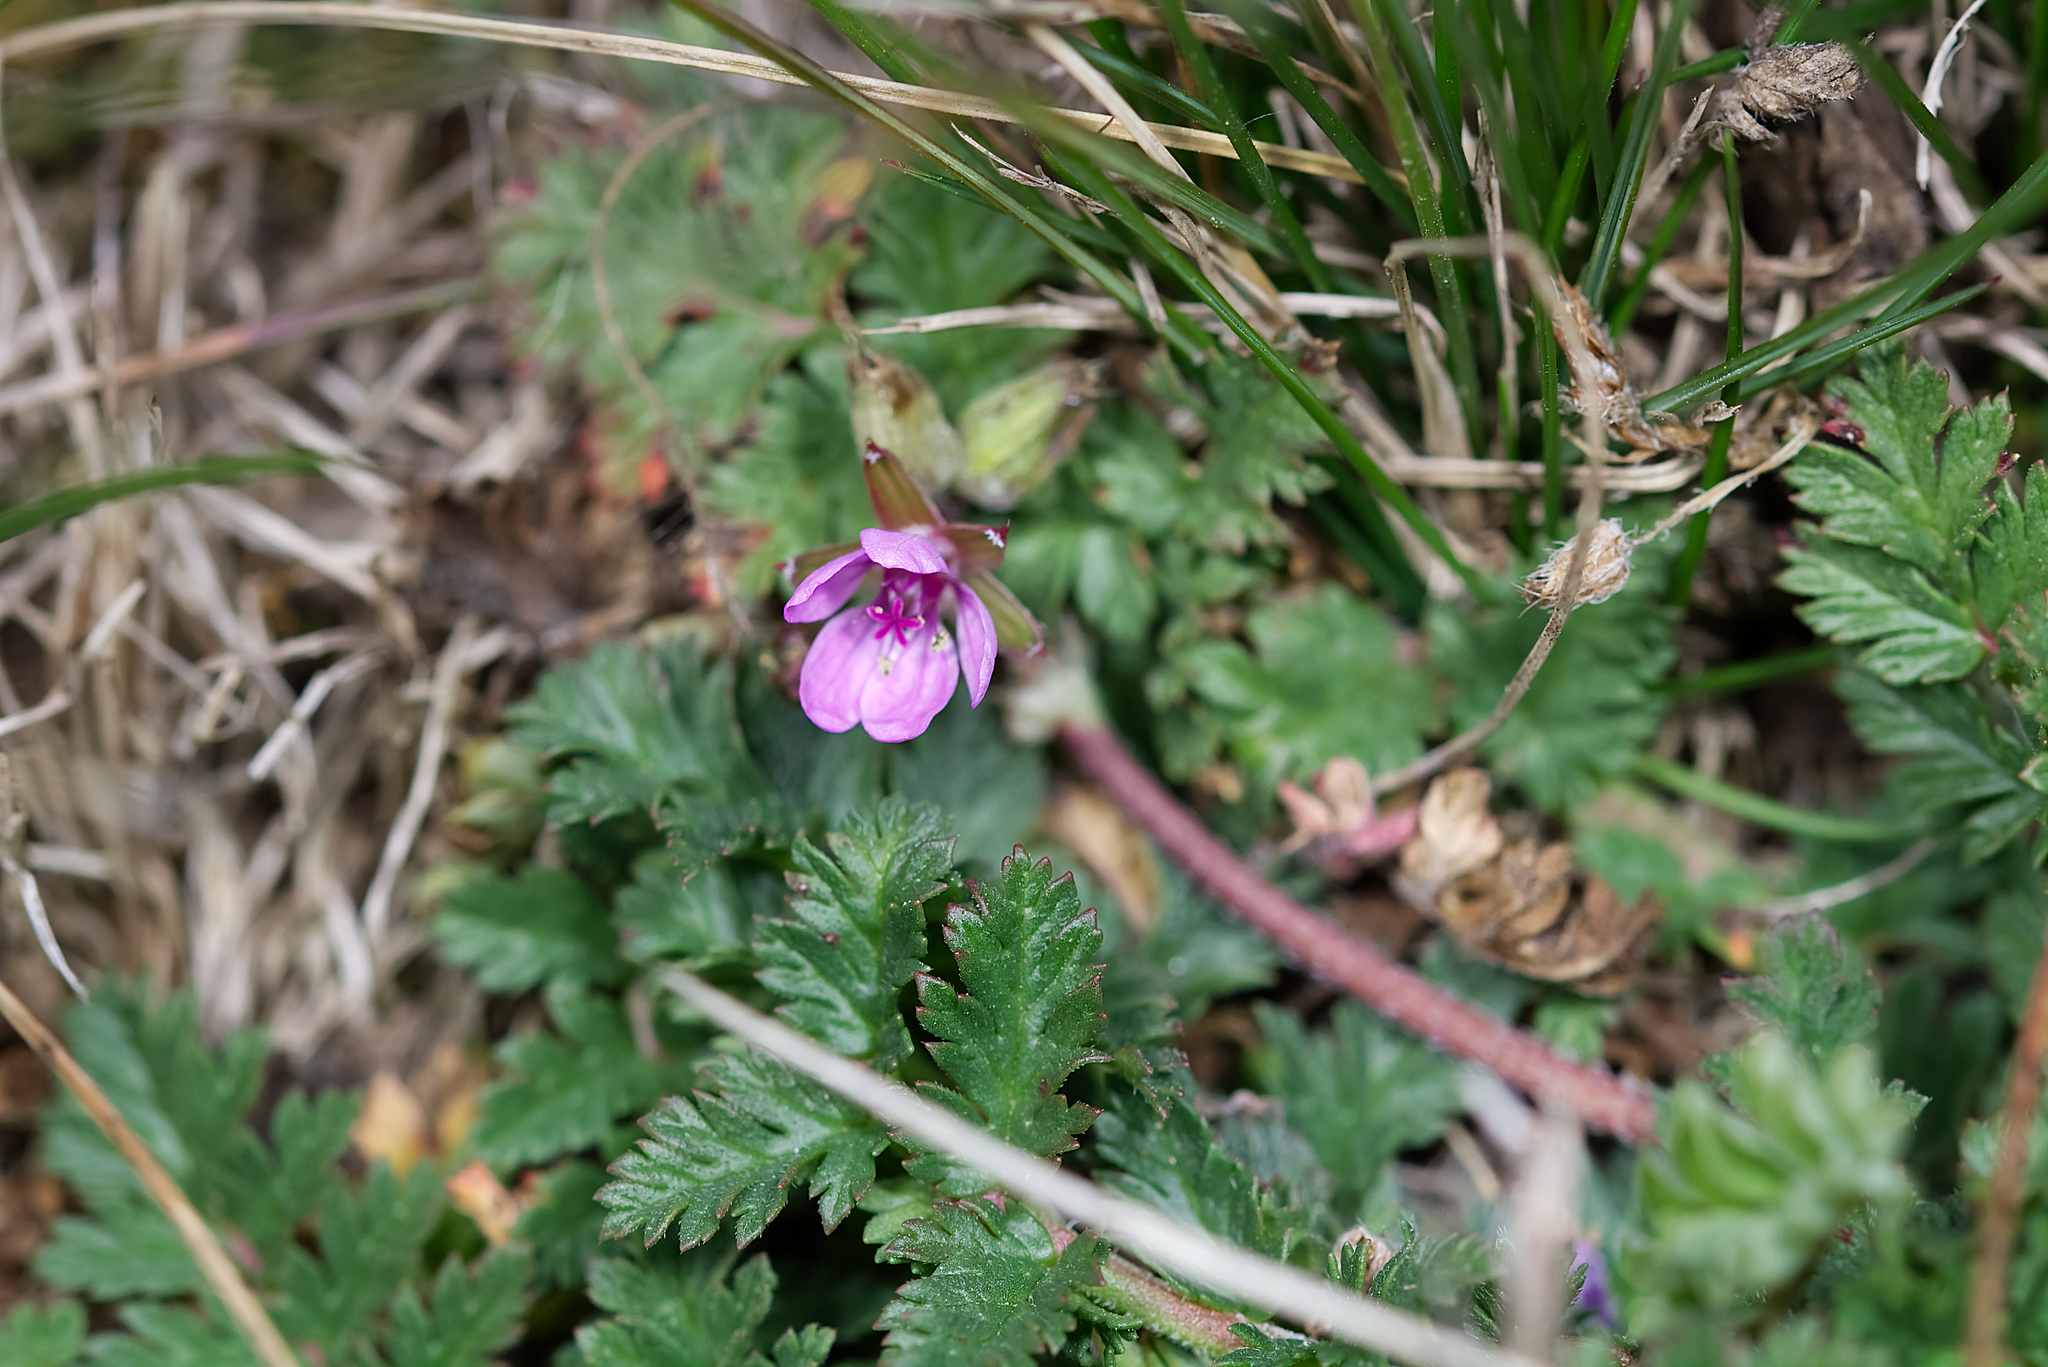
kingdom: Plantae
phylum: Tracheophyta
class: Magnoliopsida
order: Geraniales
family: Geraniaceae
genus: Erodium
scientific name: Erodium cicutarium
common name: Common stork's-bill
